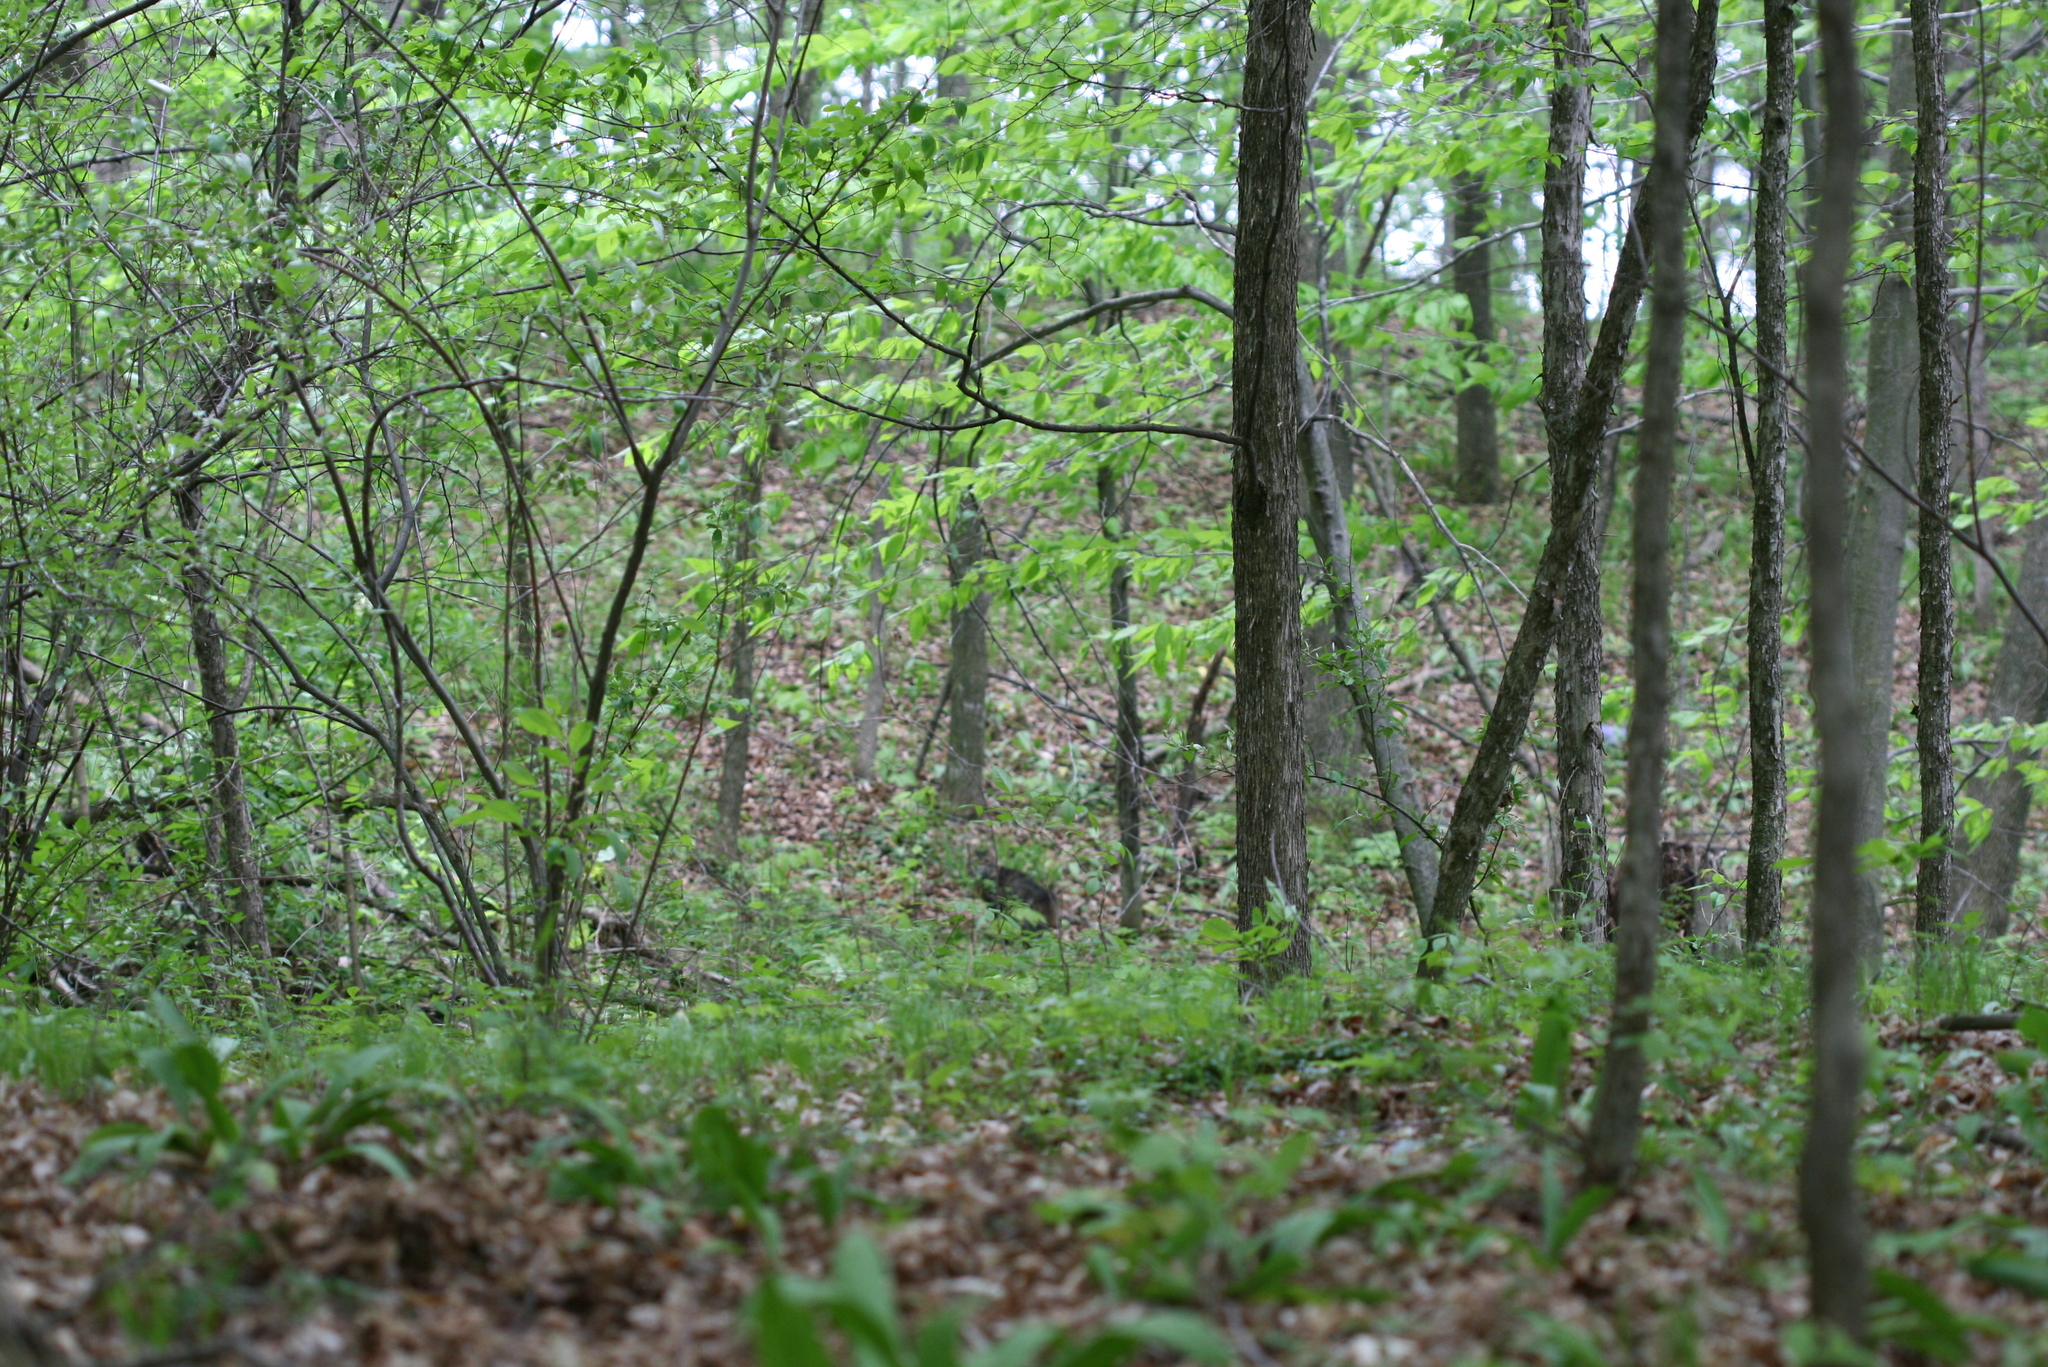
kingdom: Animalia
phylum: Chordata
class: Mammalia
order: Carnivora
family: Felidae
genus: Lynx
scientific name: Lynx rufus
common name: Bobcat
